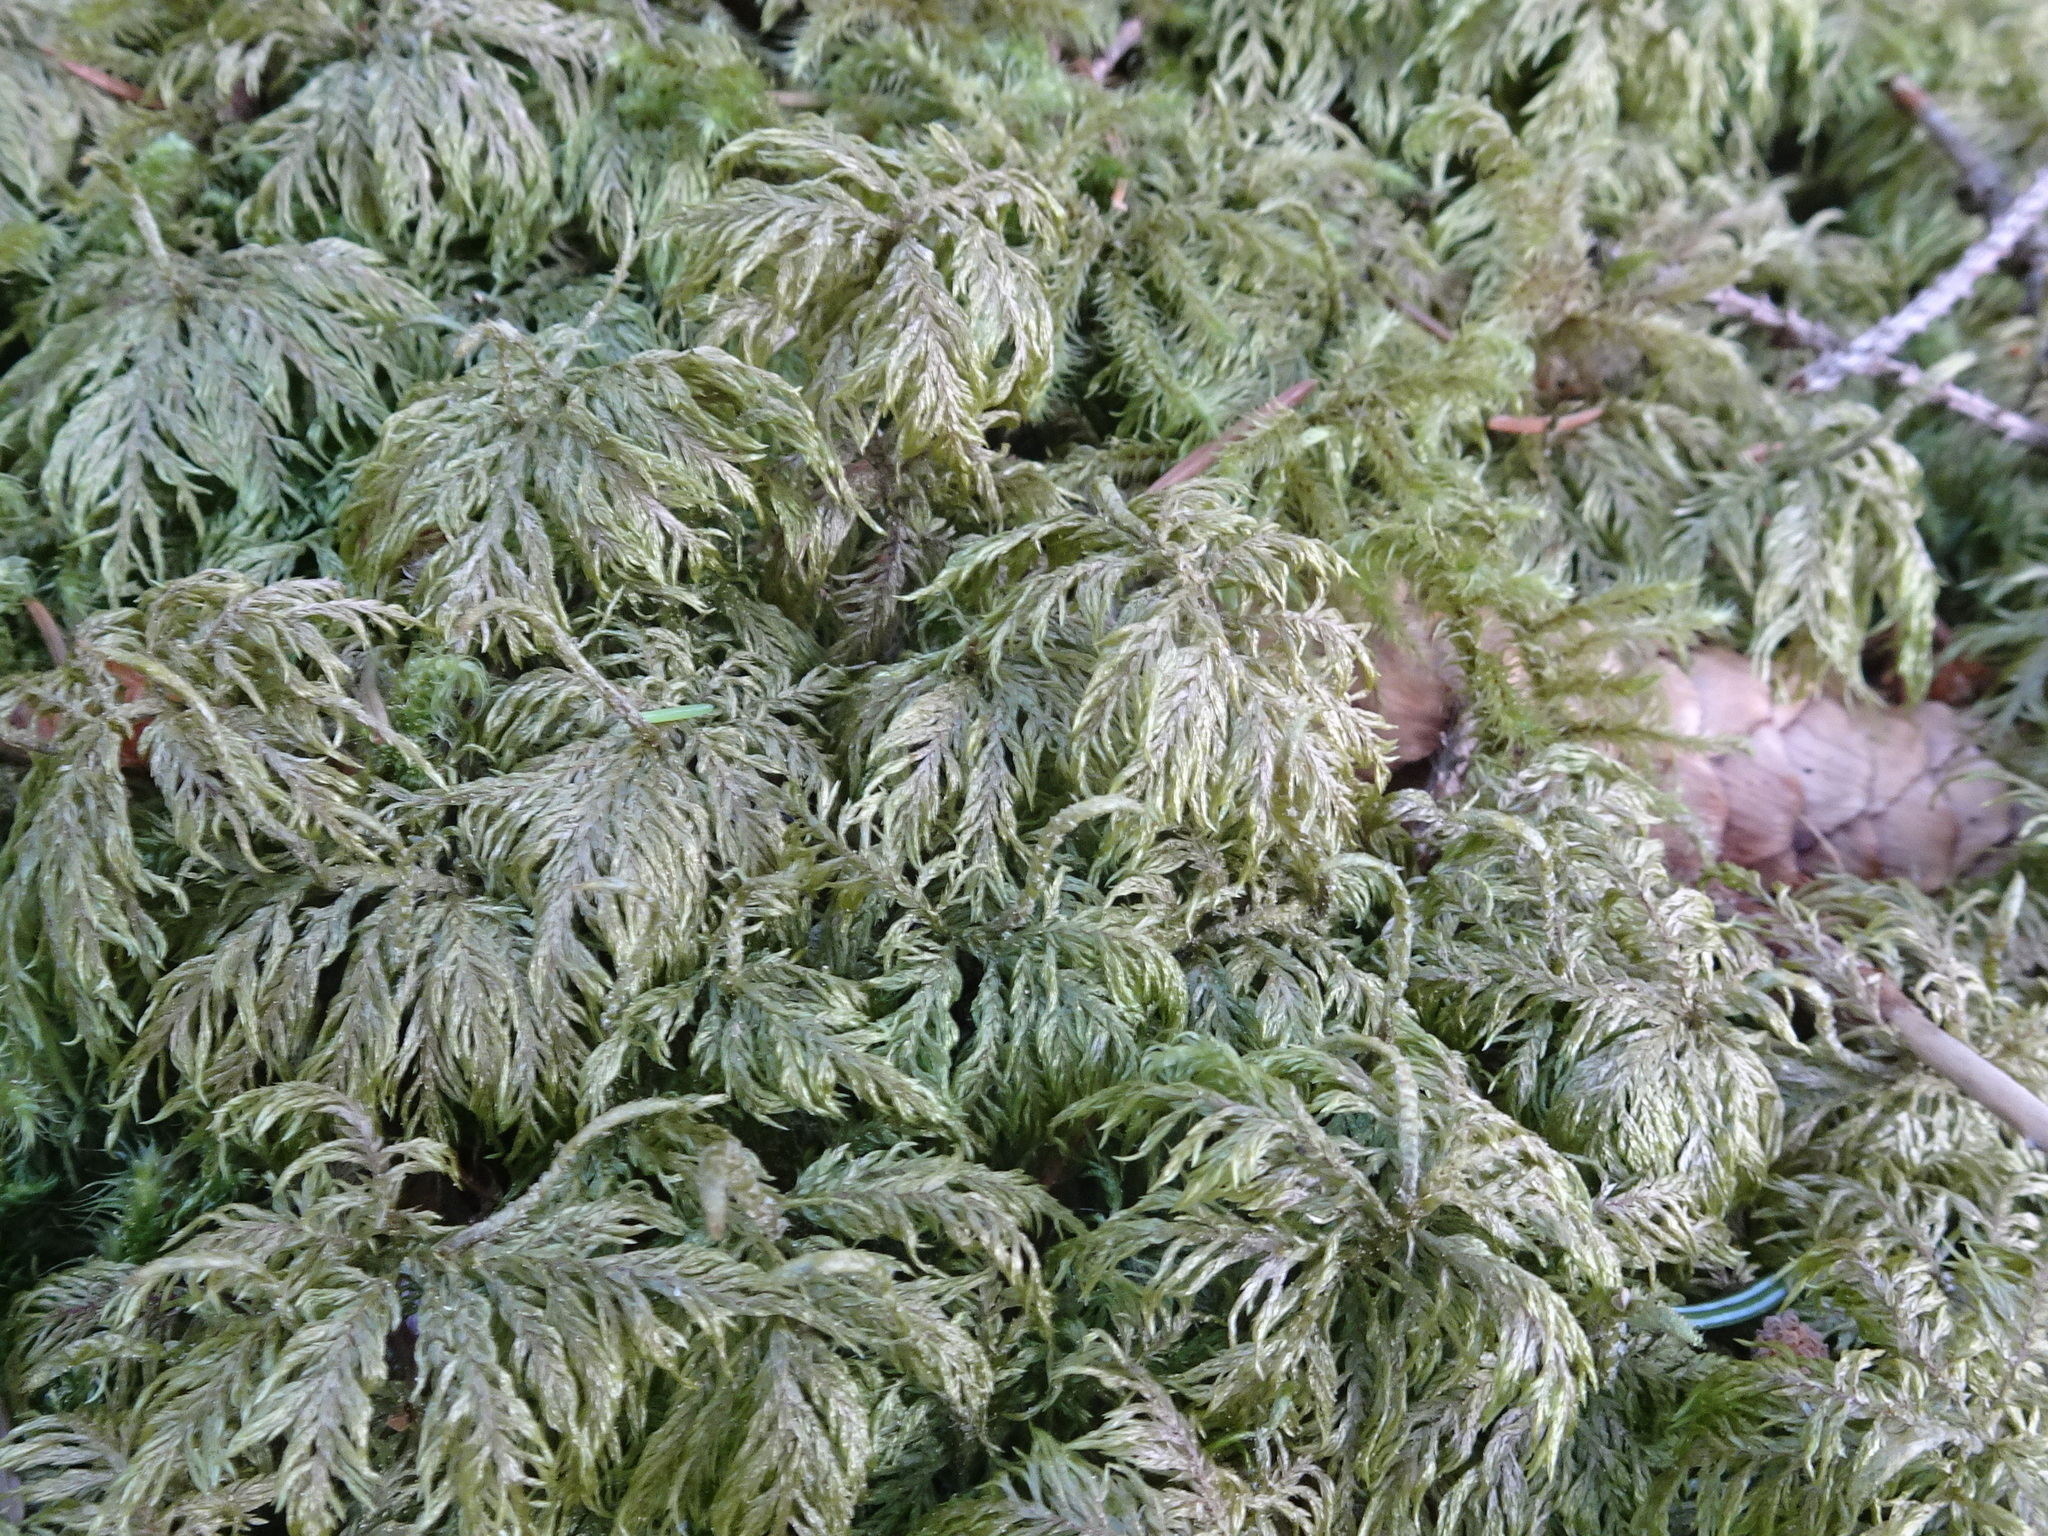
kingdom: Plantae
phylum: Bryophyta
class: Bryopsida
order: Hypnales
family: Hylocomiaceae
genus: Hylocomium
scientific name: Hylocomium splendens
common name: Stairstep moss
